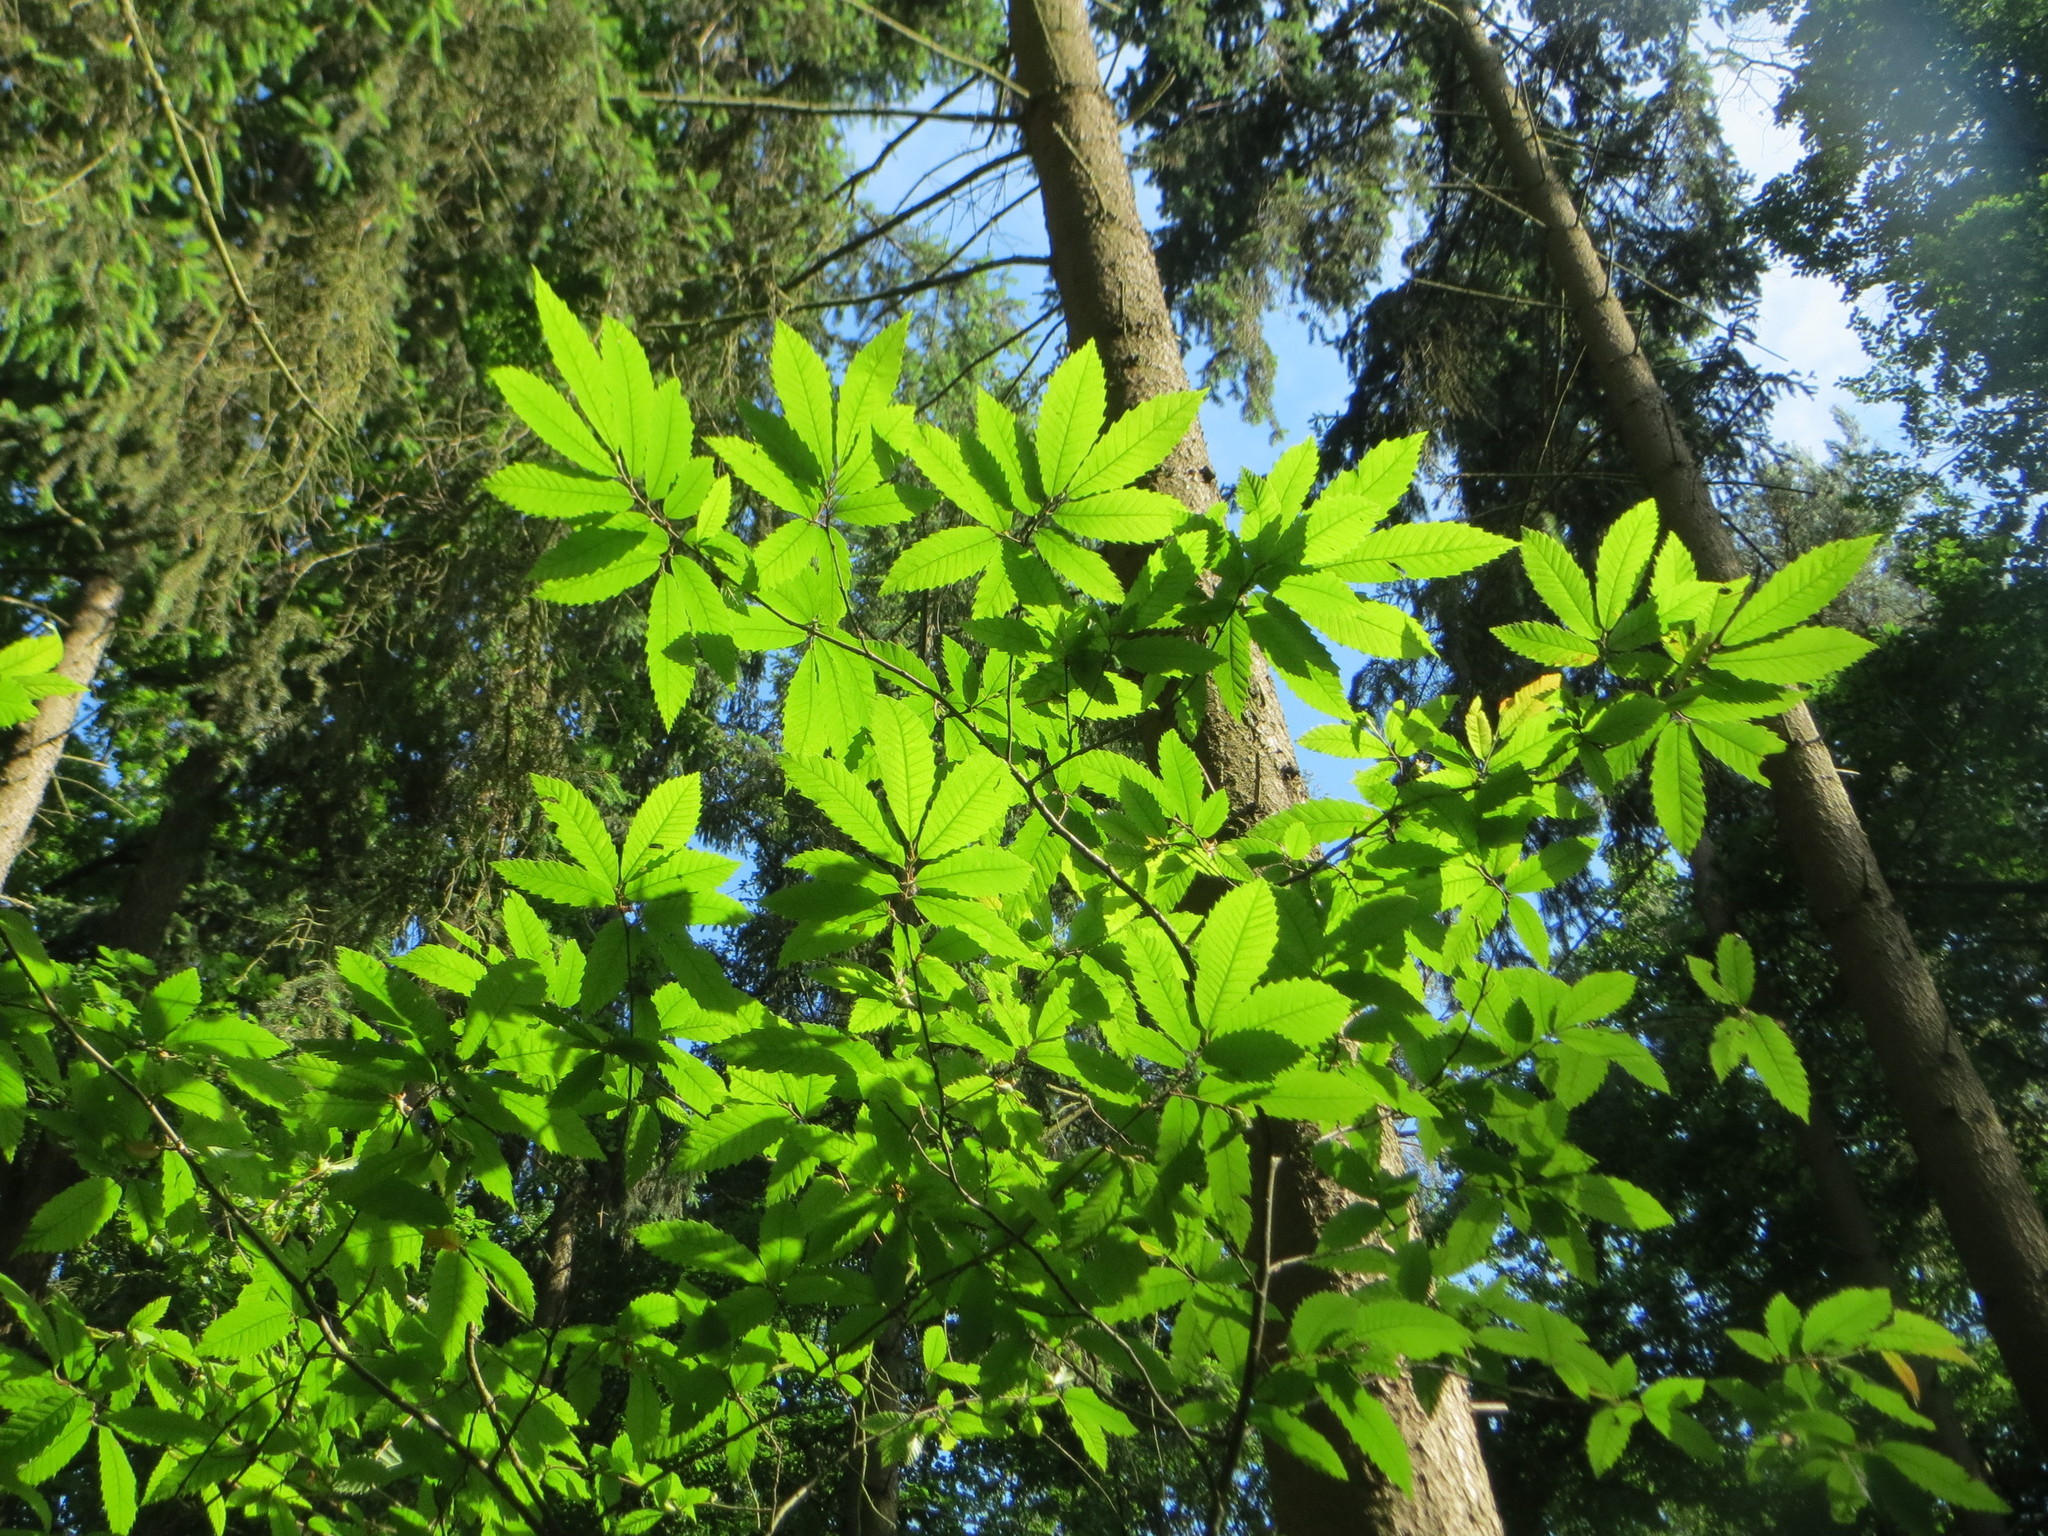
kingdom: Plantae
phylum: Tracheophyta
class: Magnoliopsida
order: Fagales
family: Fagaceae
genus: Castanea
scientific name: Castanea sativa
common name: Sweet chestnut
